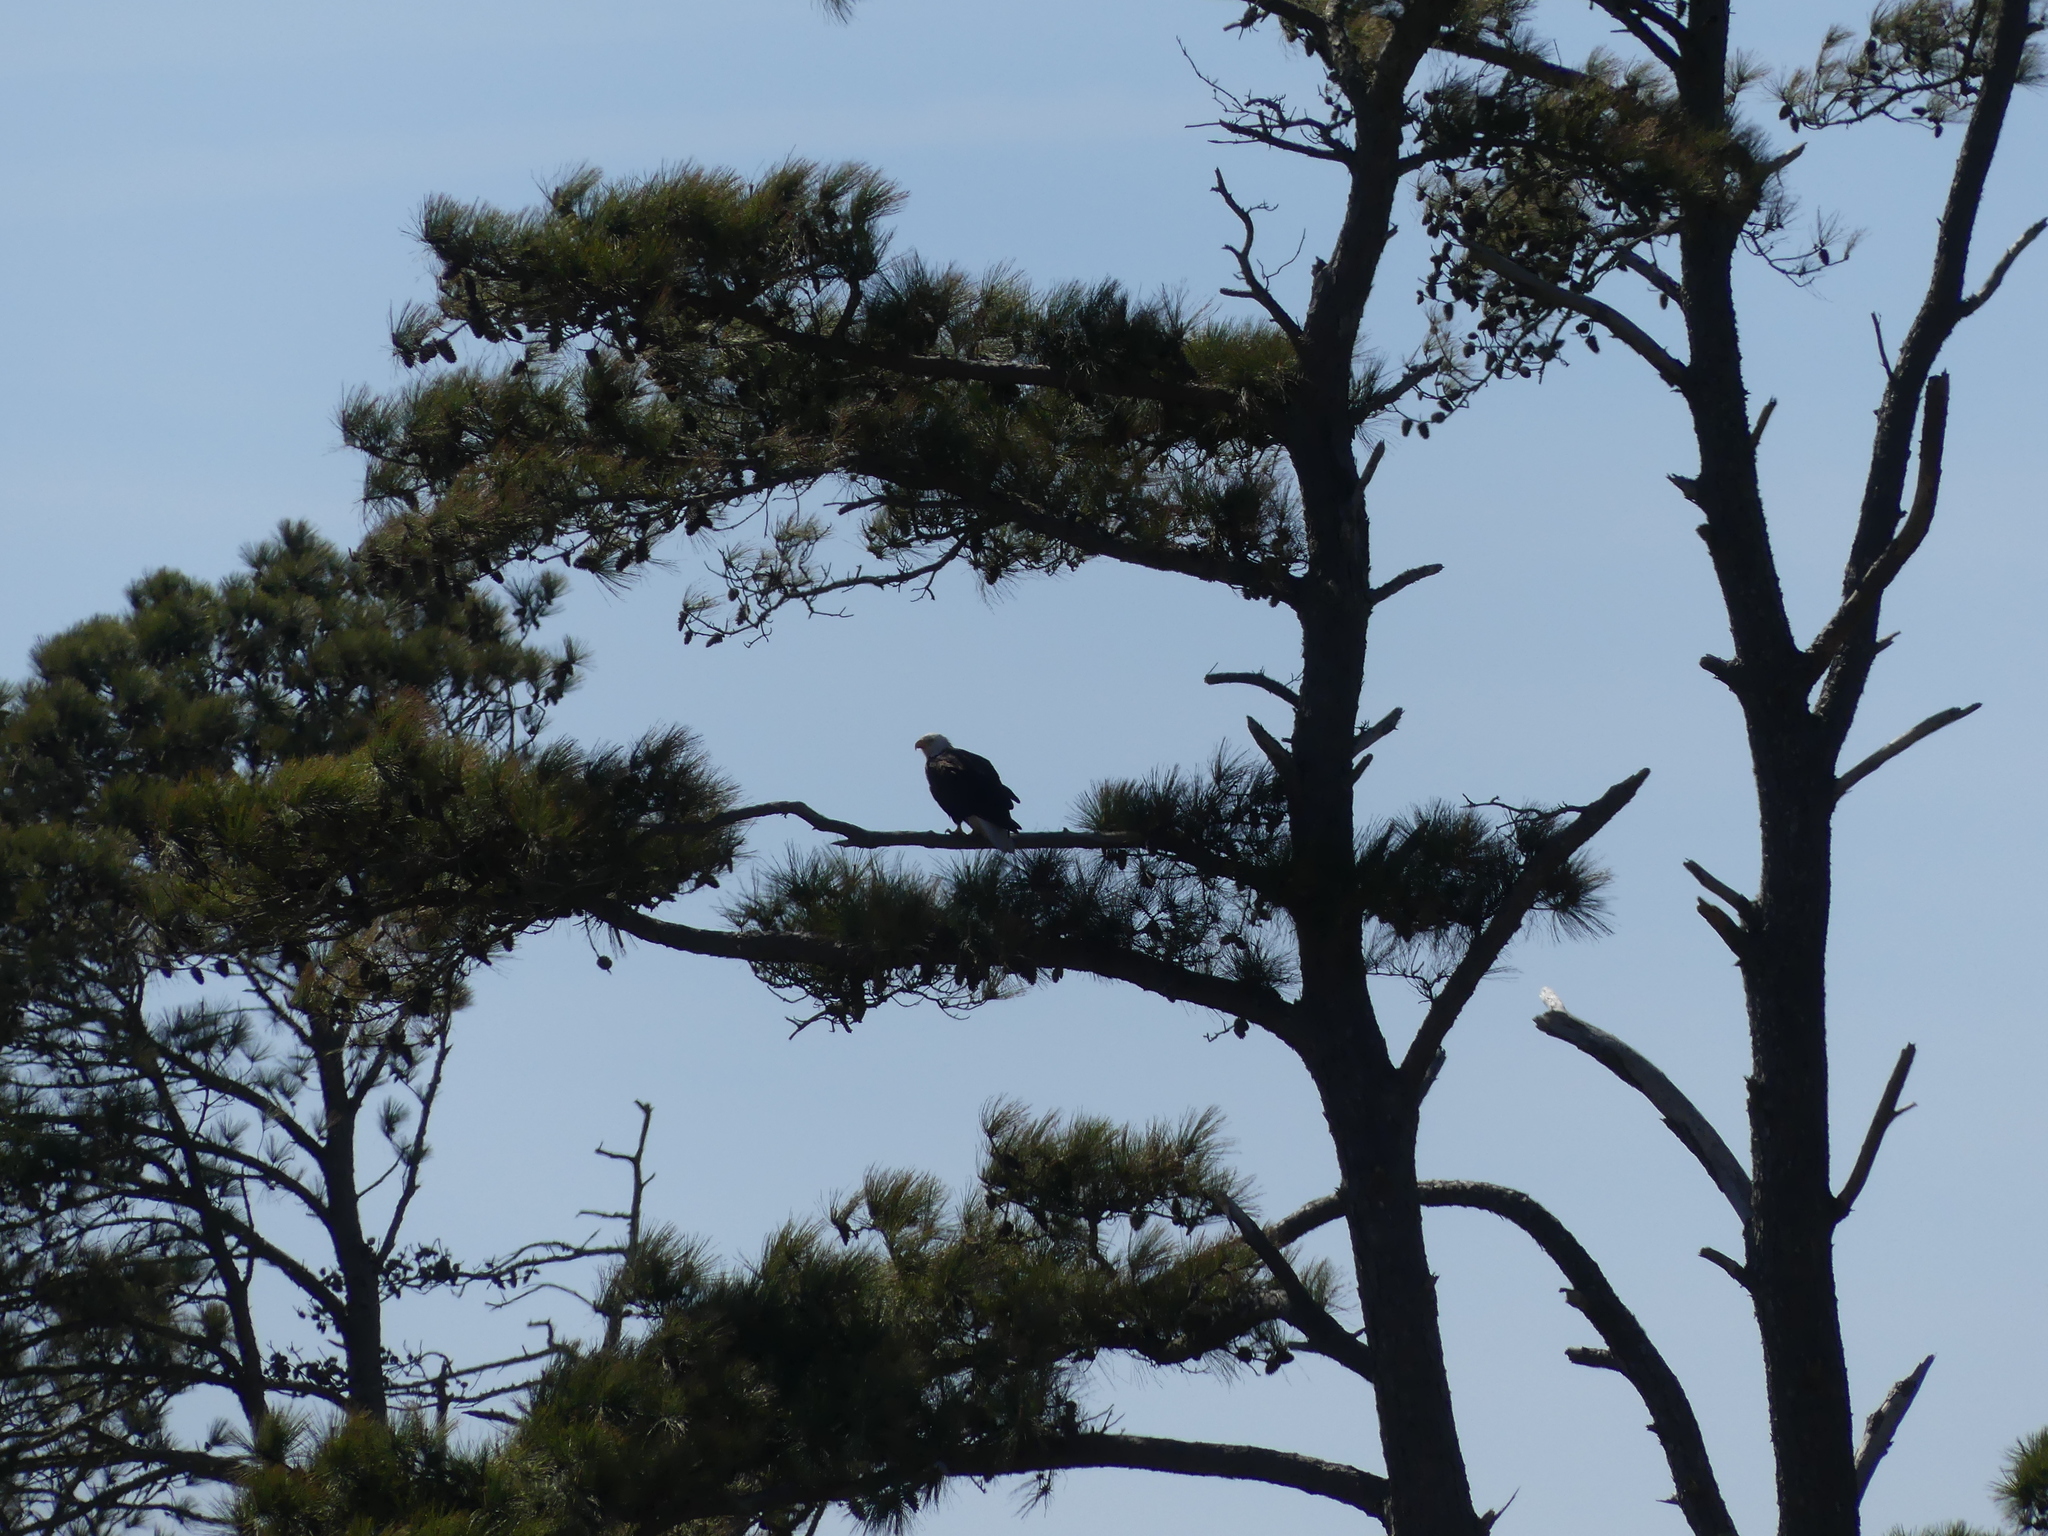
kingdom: Animalia
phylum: Chordata
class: Aves
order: Accipitriformes
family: Accipitridae
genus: Haliaeetus
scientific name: Haliaeetus leucocephalus
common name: Bald eagle
